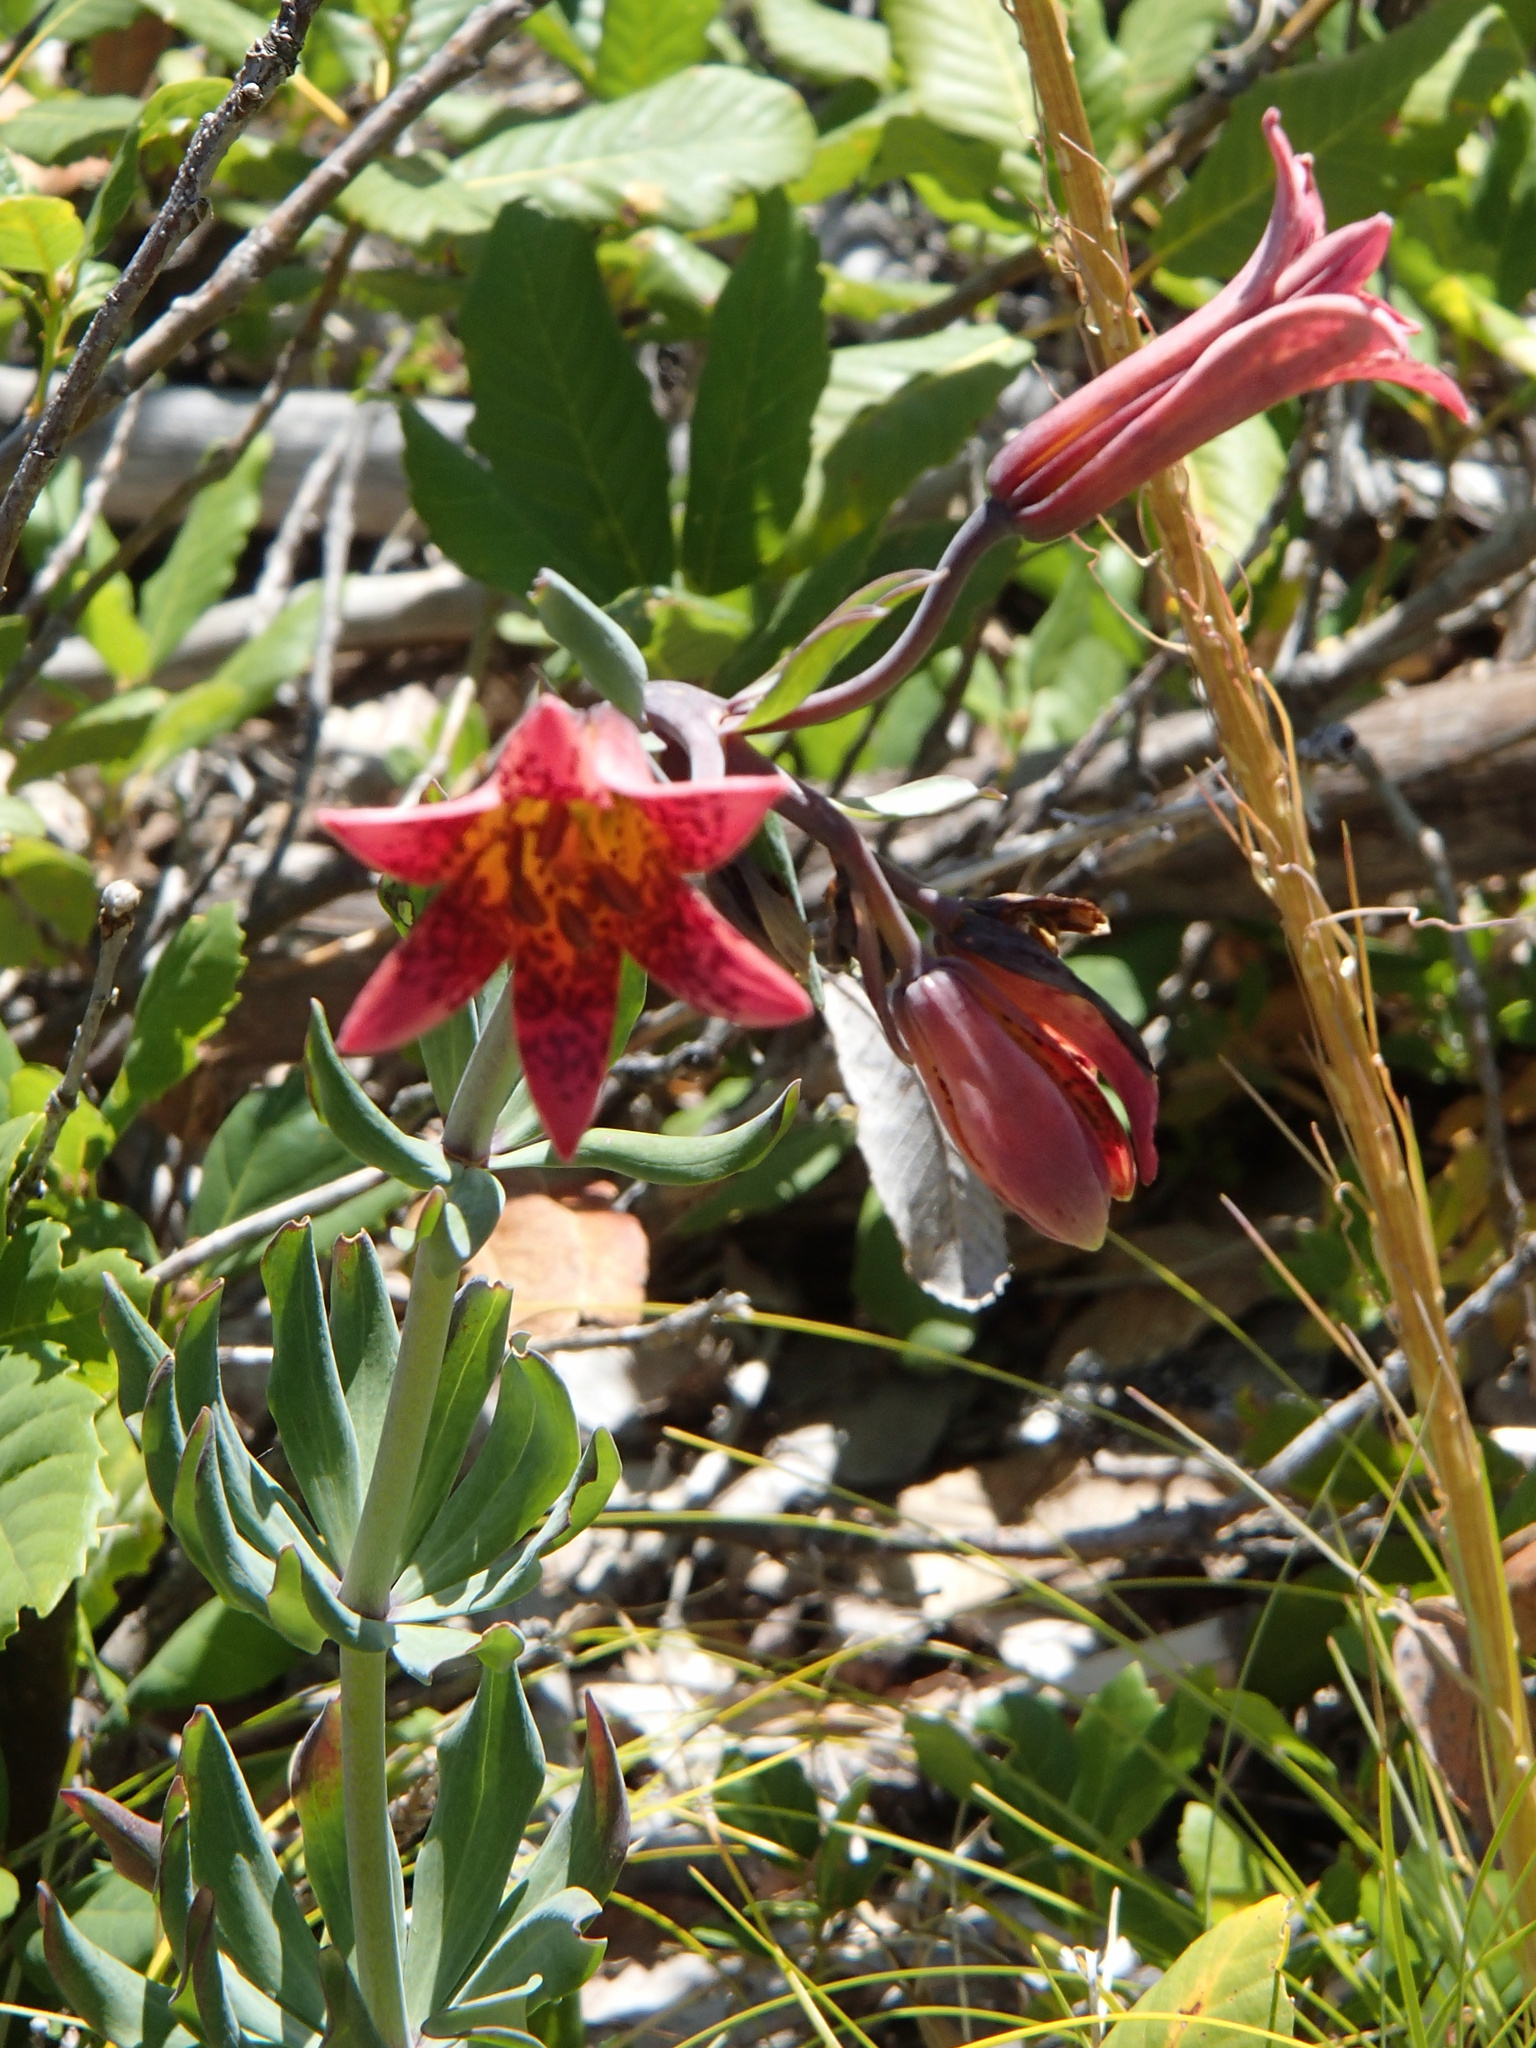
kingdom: Plantae
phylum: Tracheophyta
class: Liliopsida
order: Liliales
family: Liliaceae
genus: Lilium
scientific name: Lilium bolanderi
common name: Bolander's lily
